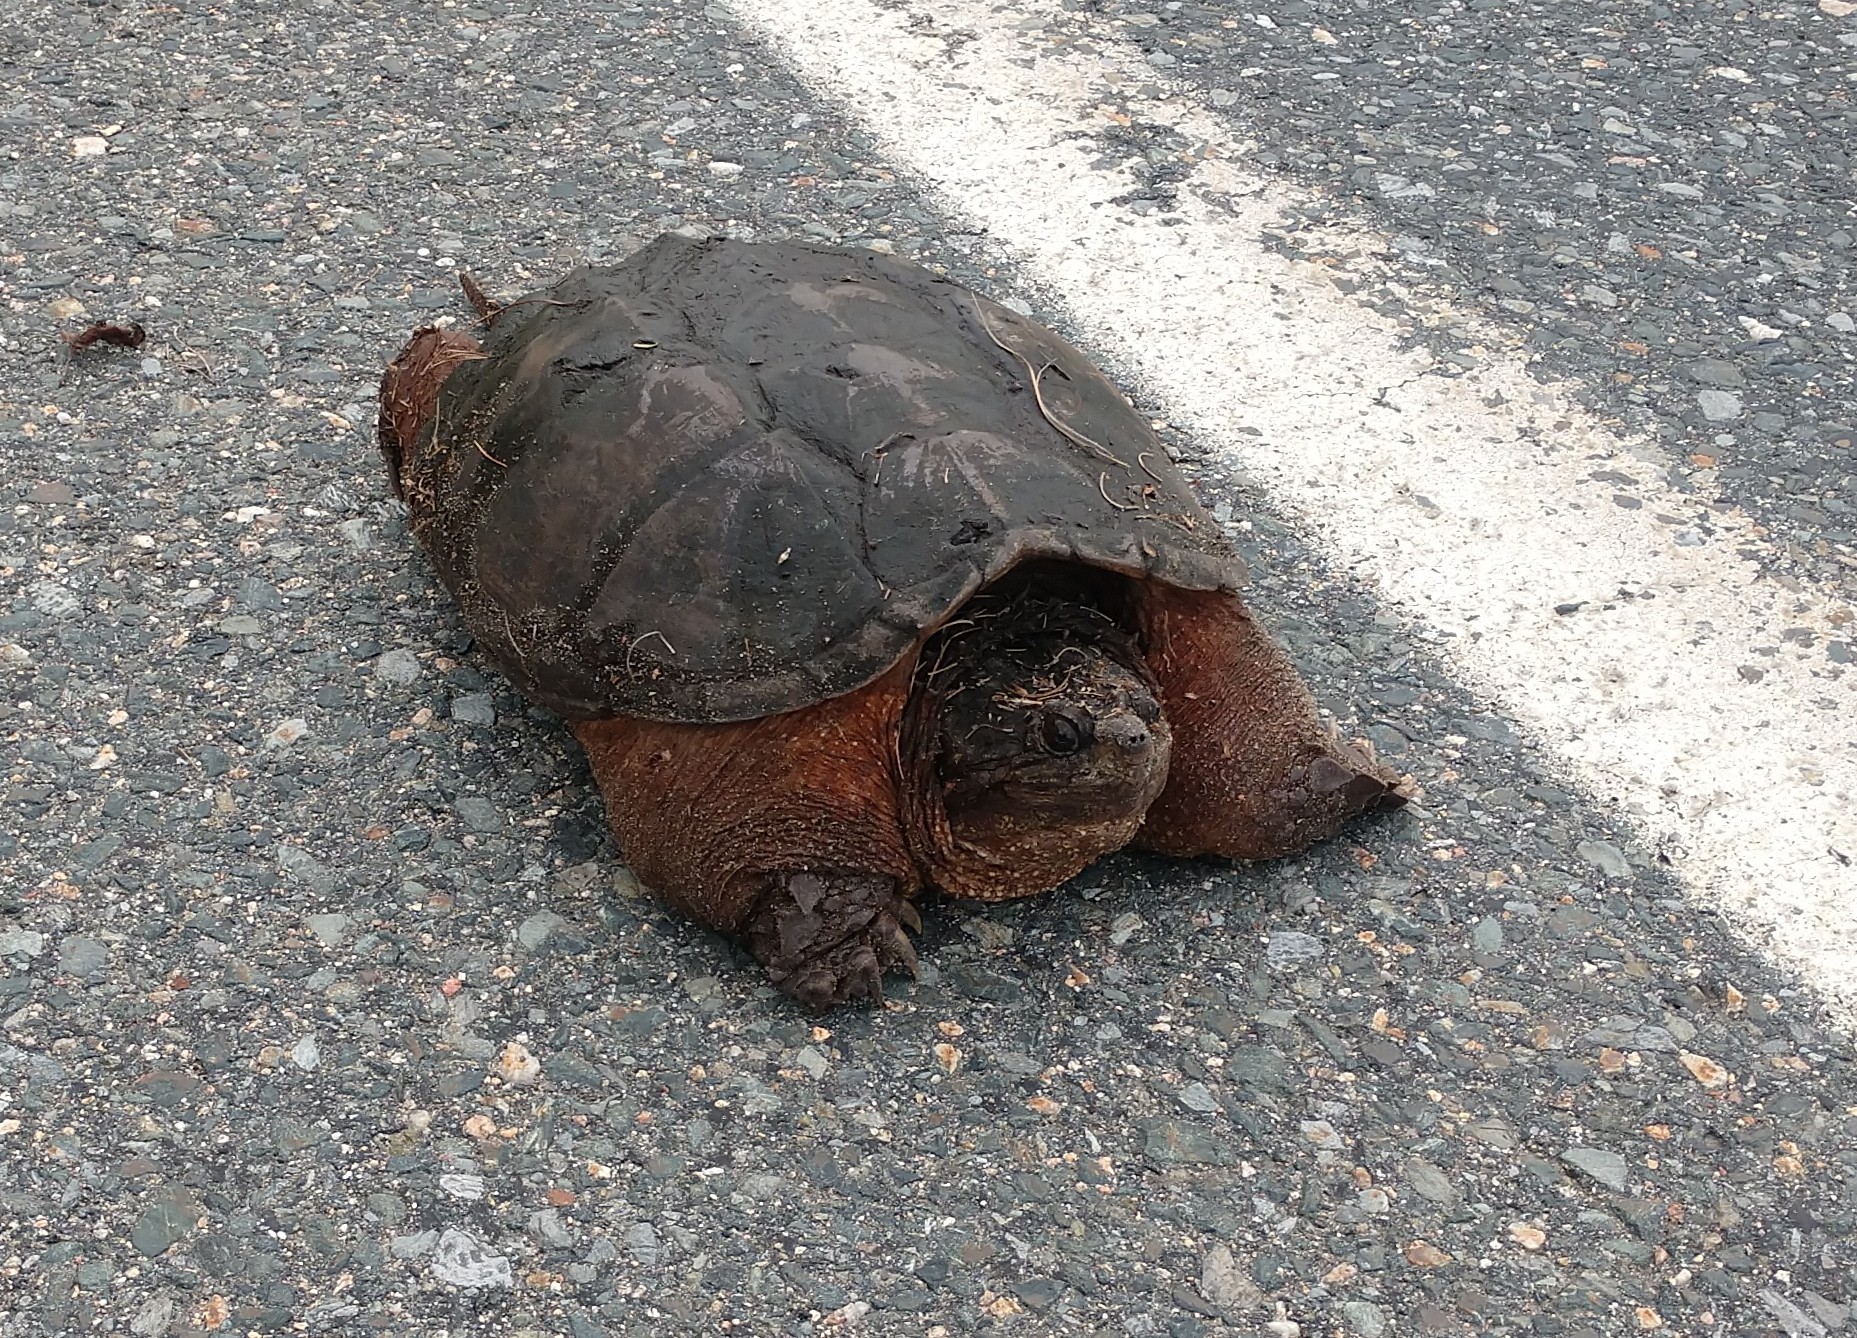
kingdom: Animalia
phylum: Chordata
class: Testudines
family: Chelydridae
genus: Chelydra
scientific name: Chelydra serpentina
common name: Common snapping turtle
